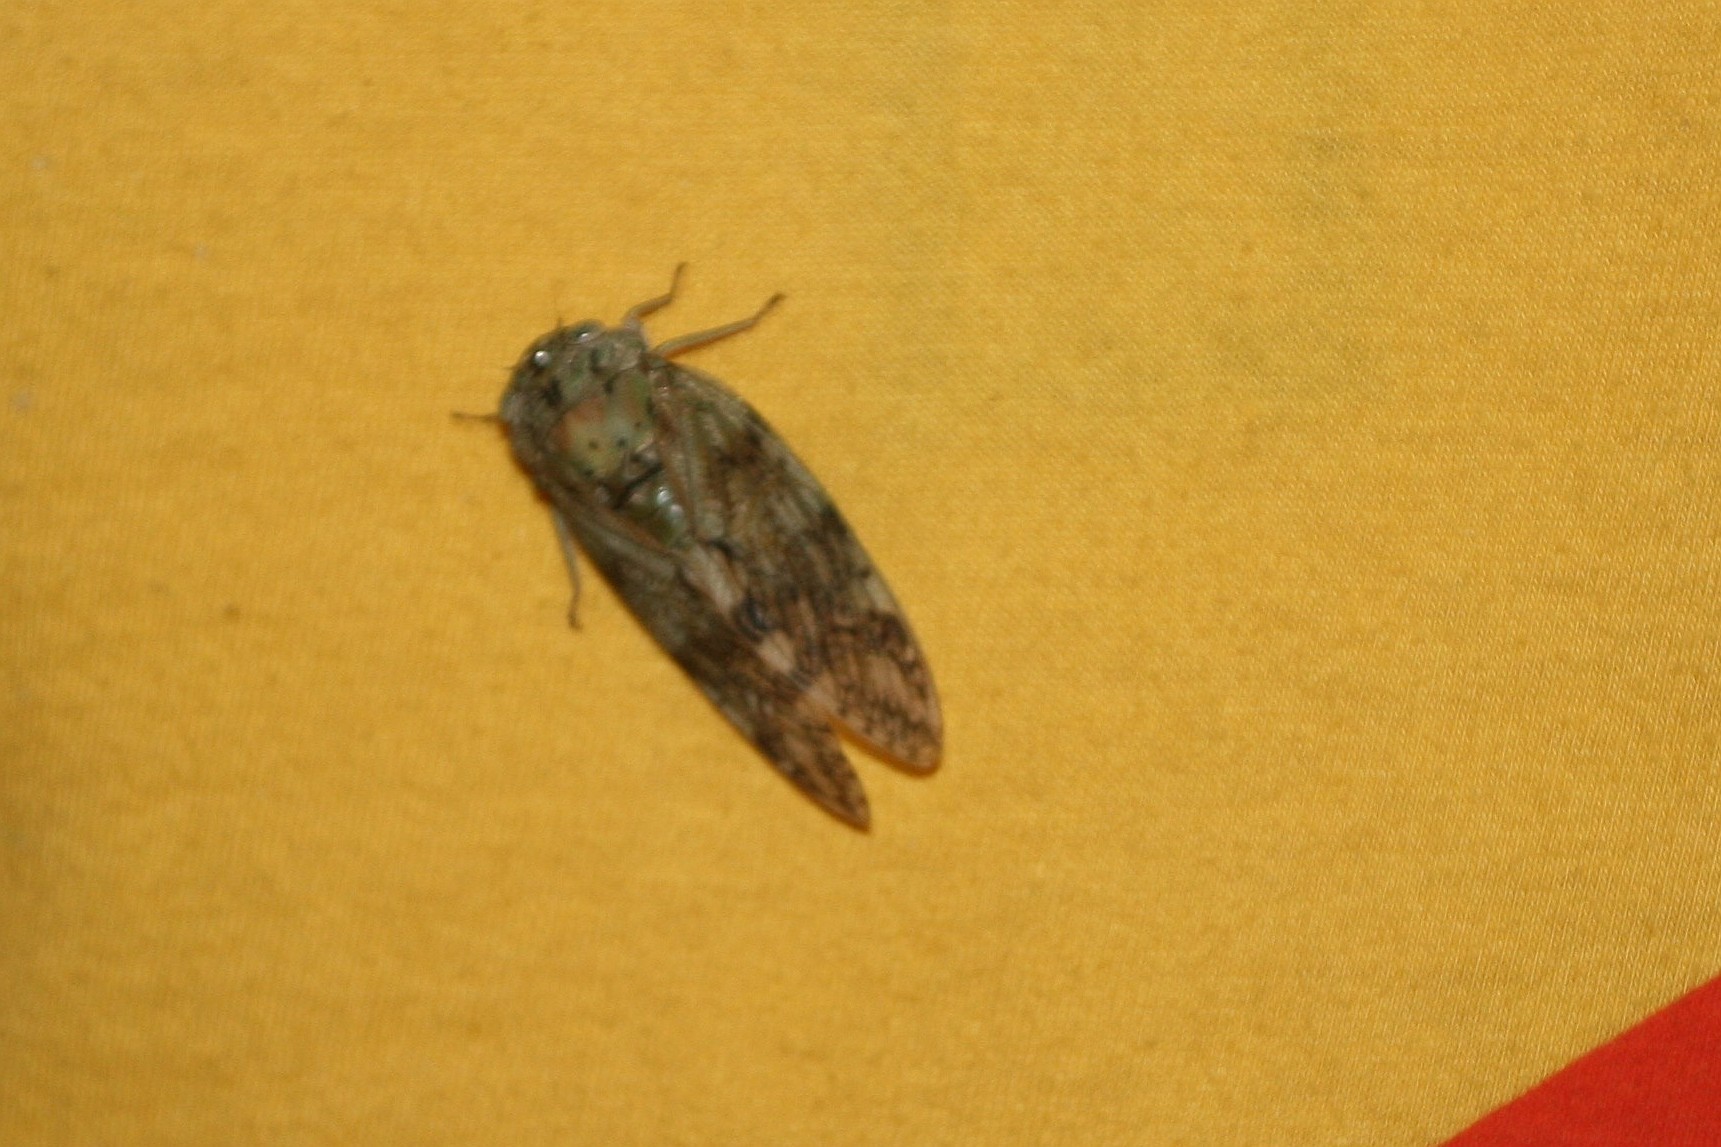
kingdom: Animalia
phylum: Arthropoda
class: Insecta
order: Hemiptera
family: Cicadidae
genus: Yanga
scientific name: Yanga andriana
